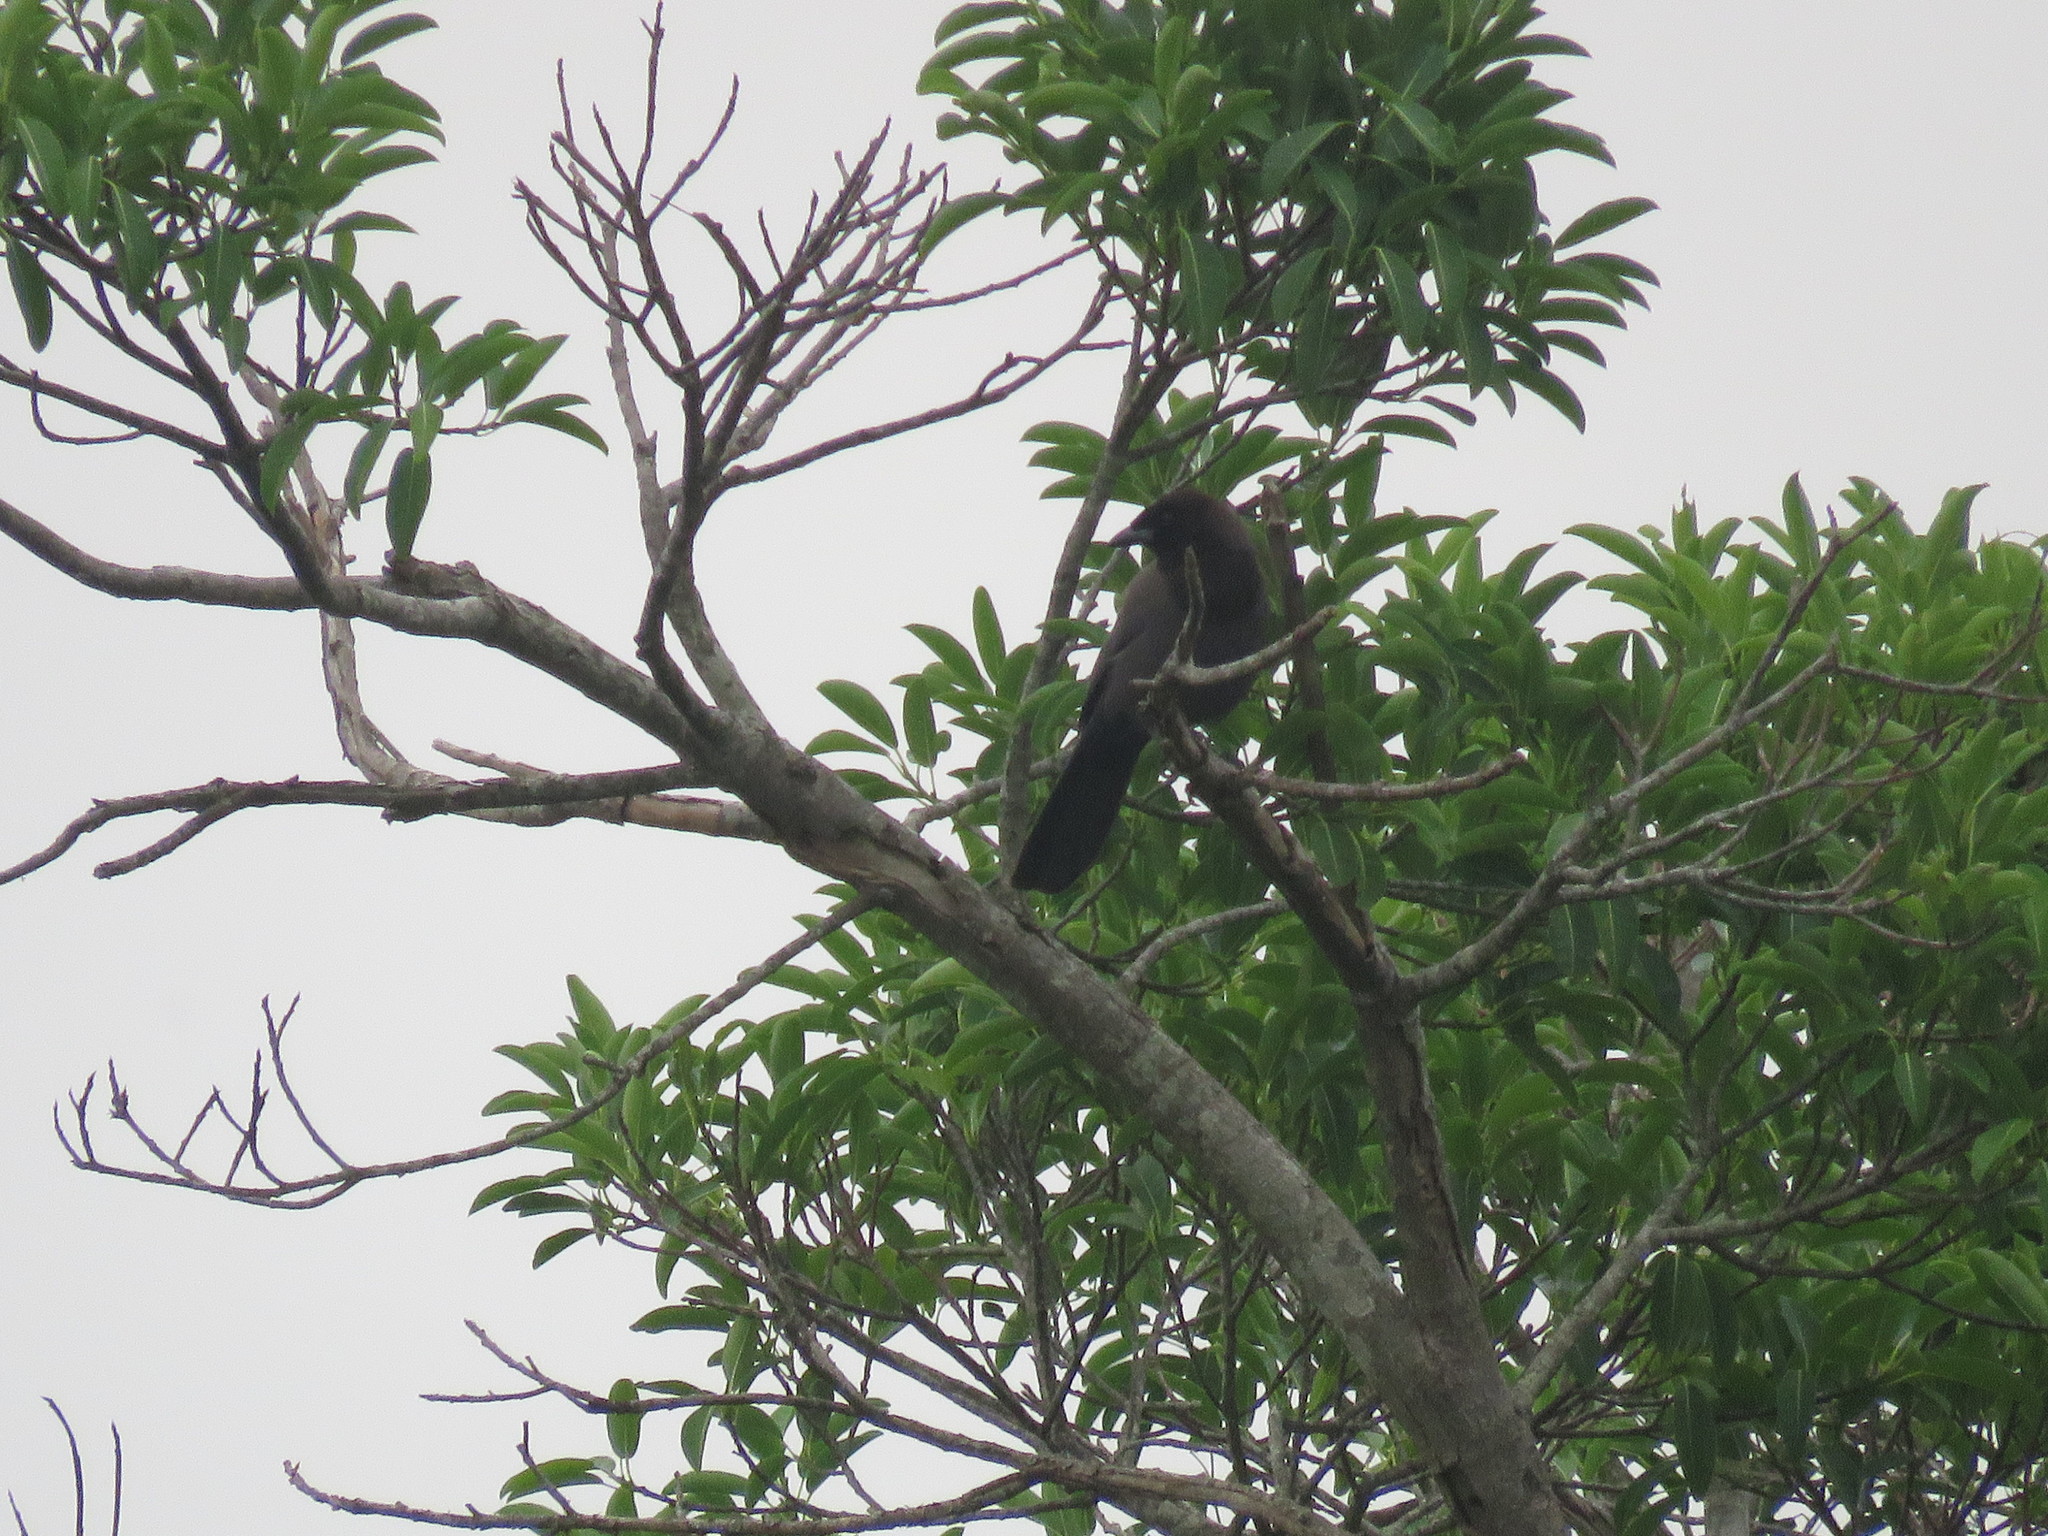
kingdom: Animalia
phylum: Chordata
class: Aves
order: Passeriformes
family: Corvidae
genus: Cyanocorax
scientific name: Cyanocorax cyanomelas
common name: Purplish jay
